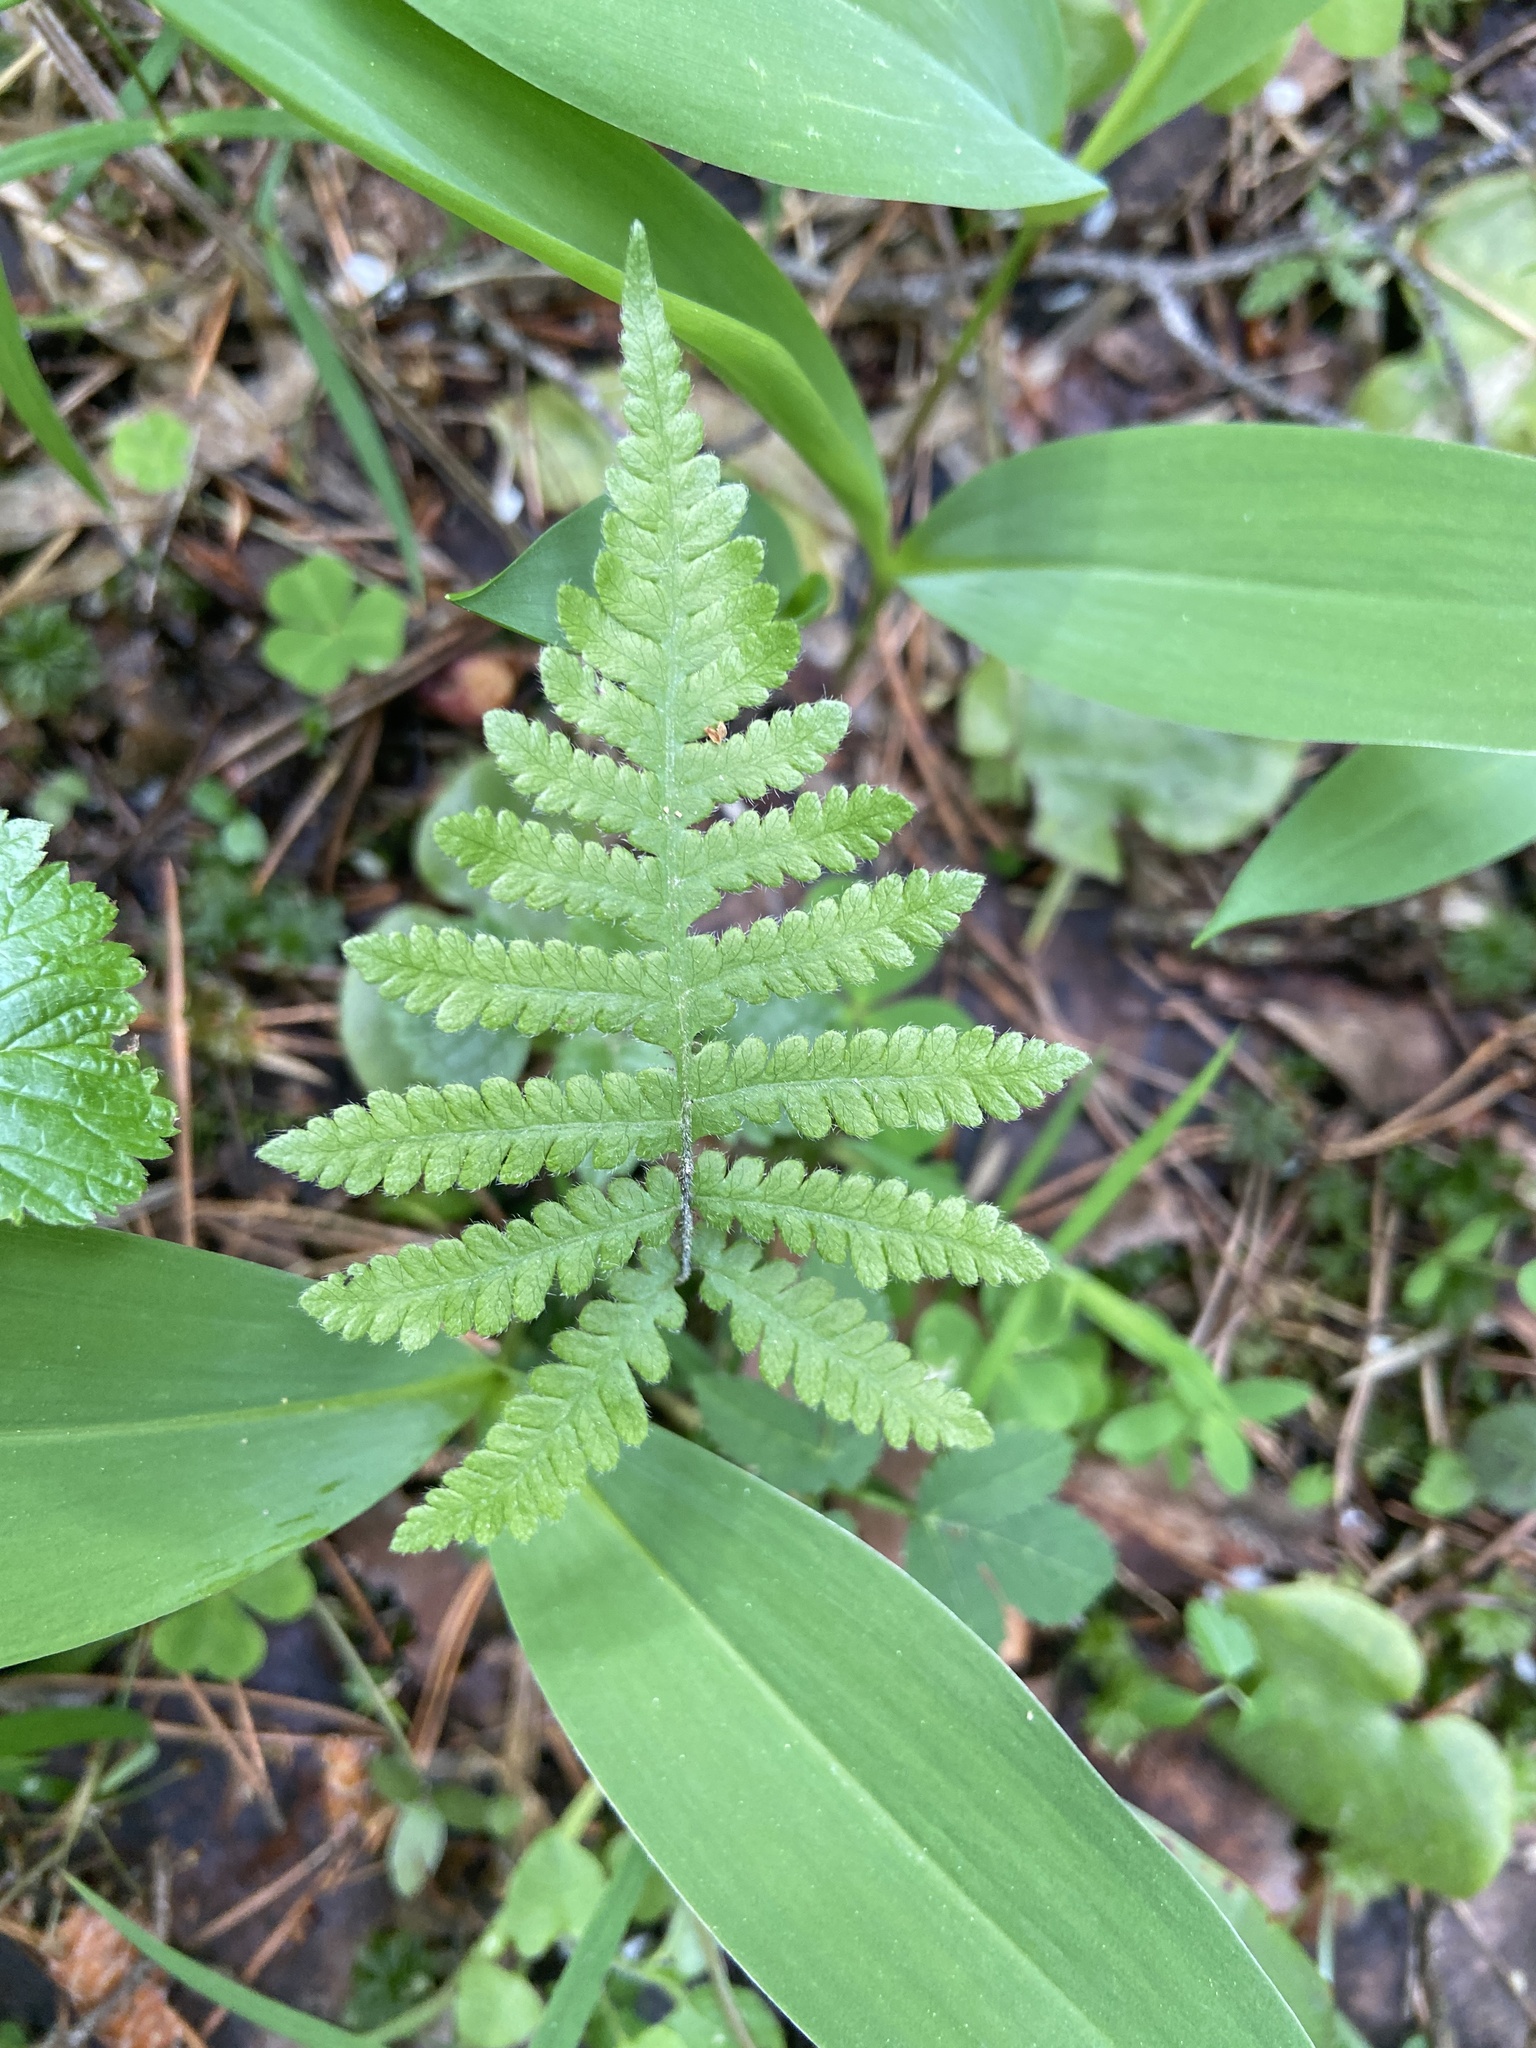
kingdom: Plantae
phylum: Tracheophyta
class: Polypodiopsida
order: Polypodiales
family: Thelypteridaceae
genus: Phegopteris
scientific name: Phegopteris connectilis
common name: Beech fern
